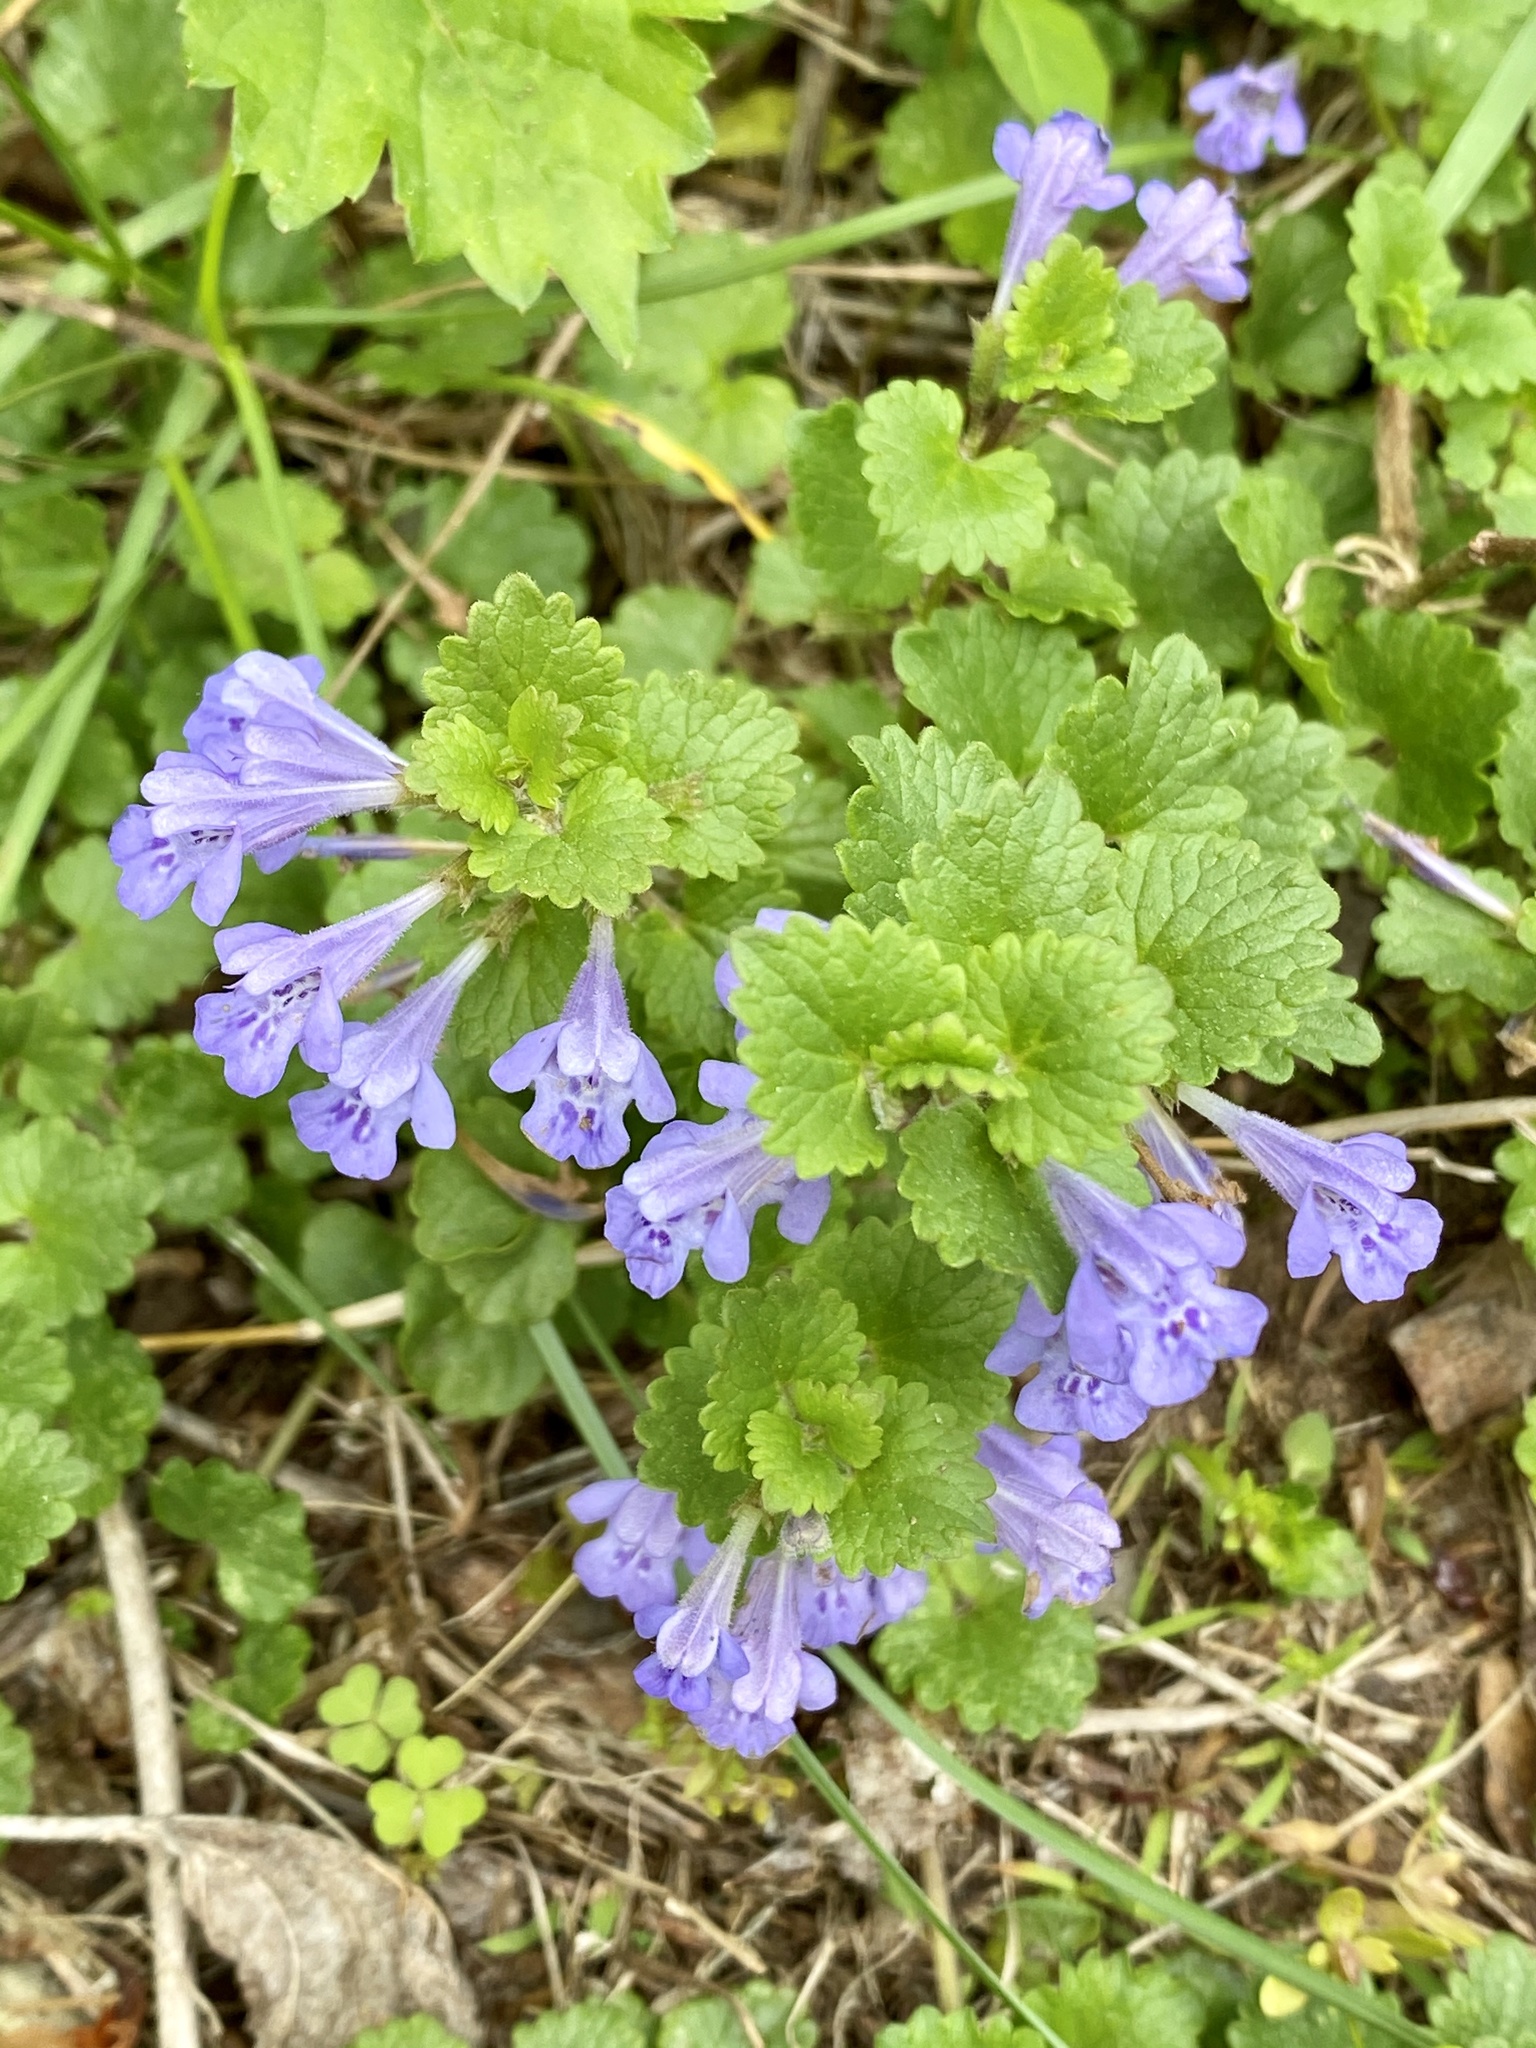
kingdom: Plantae
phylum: Tracheophyta
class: Magnoliopsida
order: Lamiales
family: Lamiaceae
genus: Glechoma
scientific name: Glechoma hederacea
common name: Ground ivy
